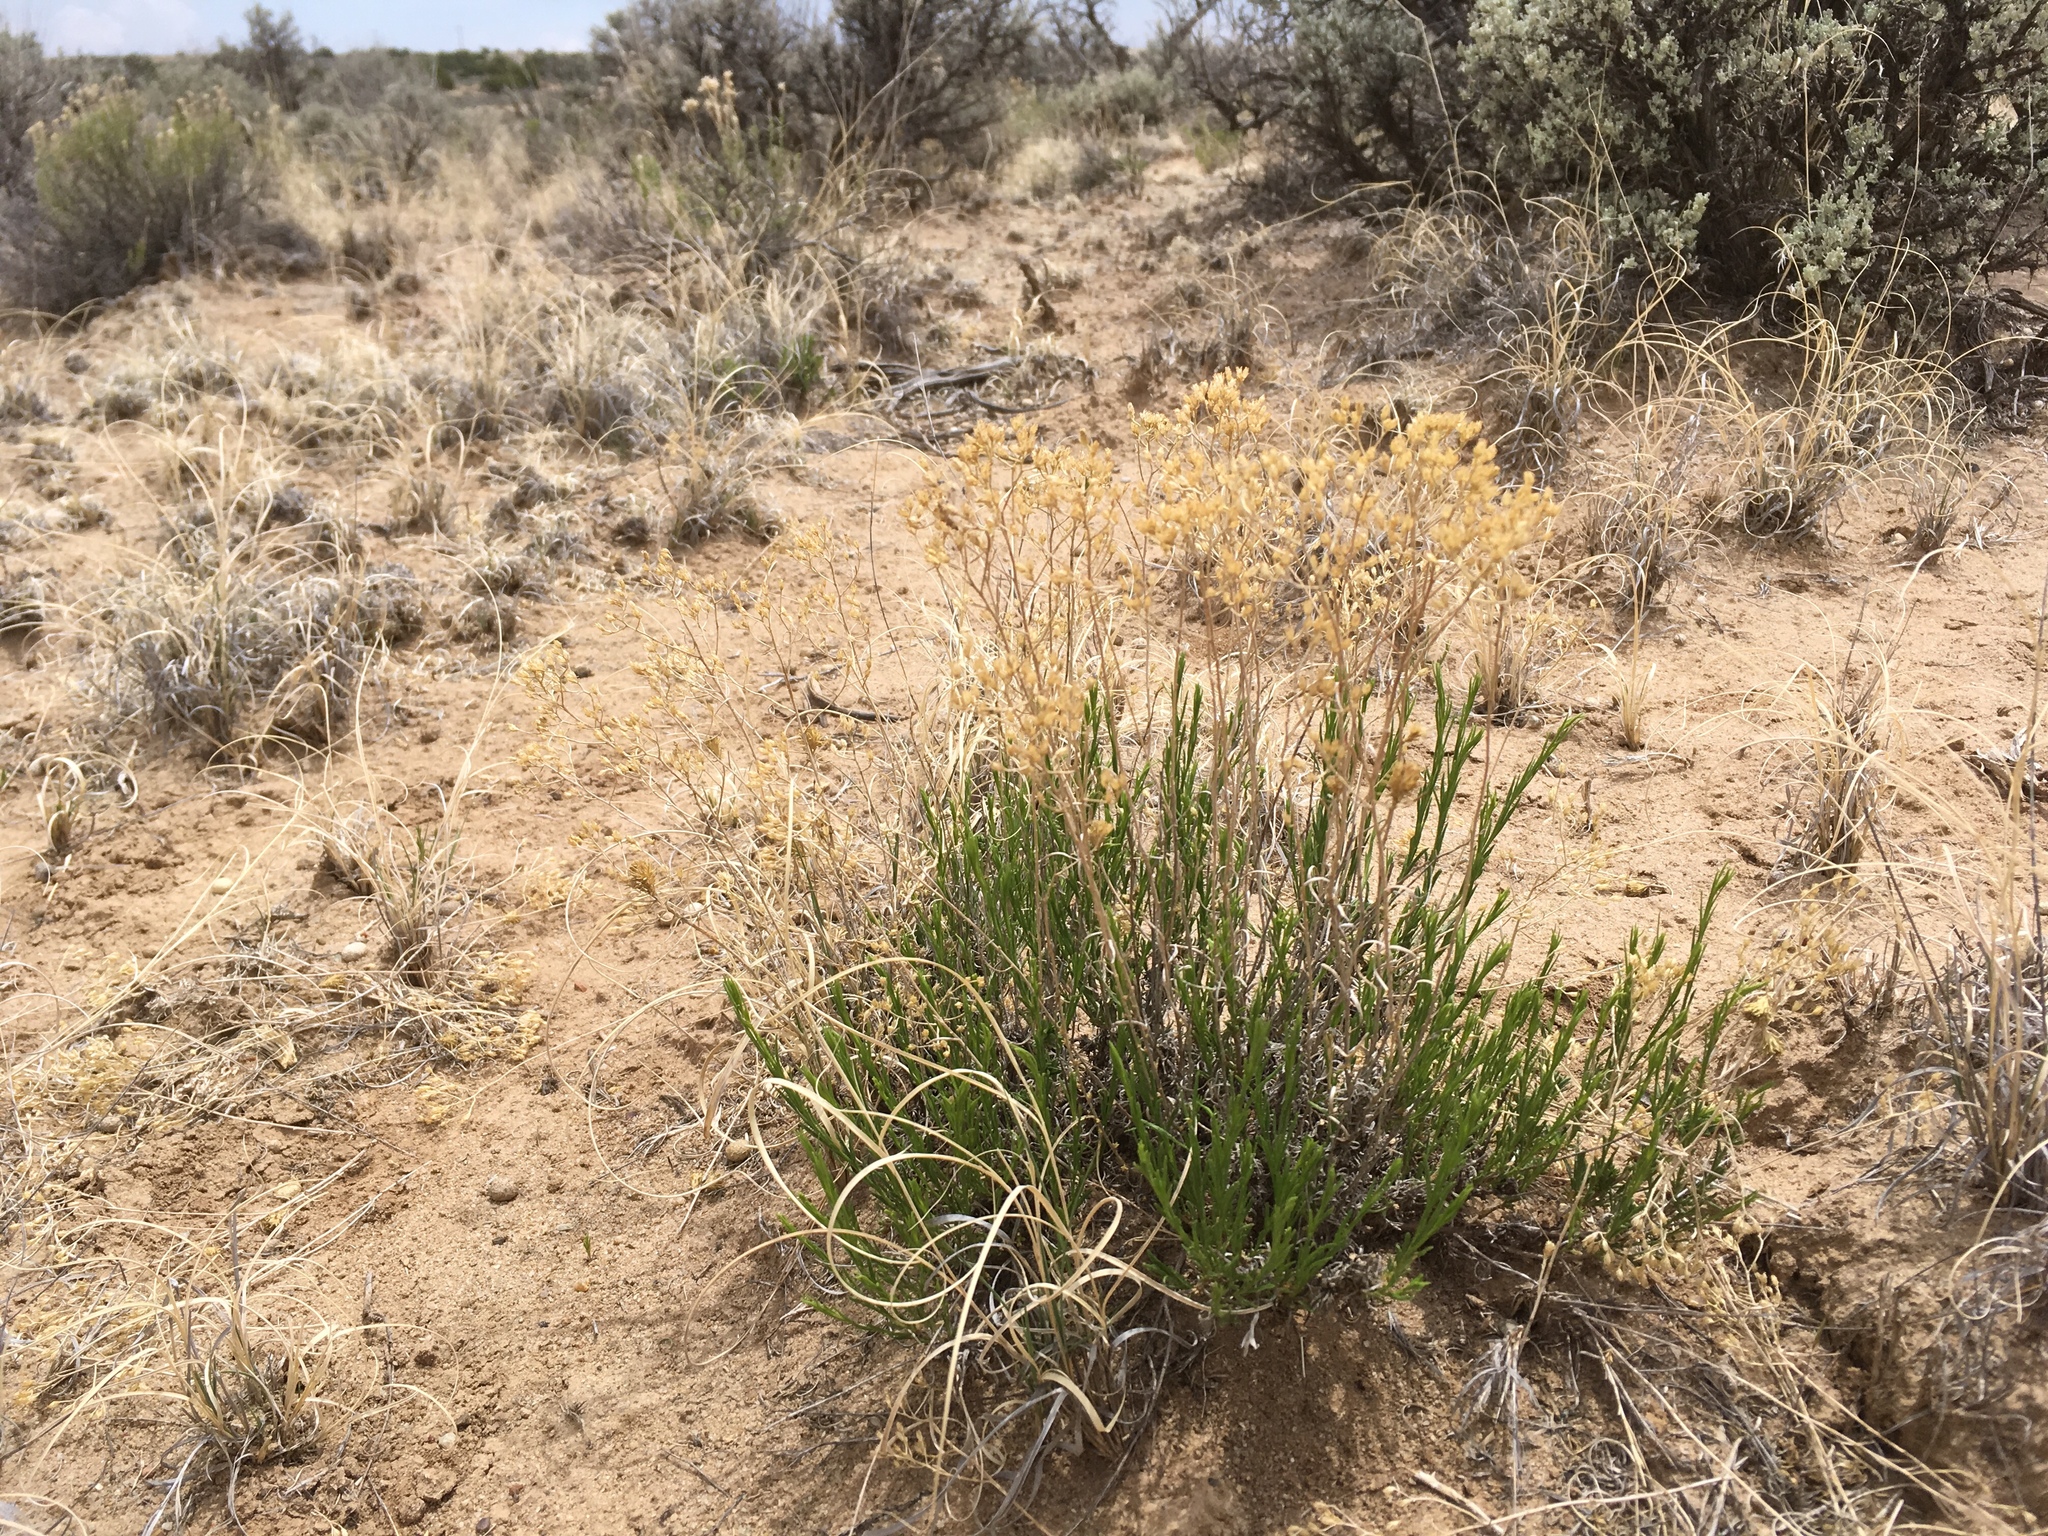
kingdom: Plantae
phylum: Tracheophyta
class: Magnoliopsida
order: Asterales
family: Asteraceae
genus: Gutierrezia
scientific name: Gutierrezia sarothrae
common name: Broom snakeweed
